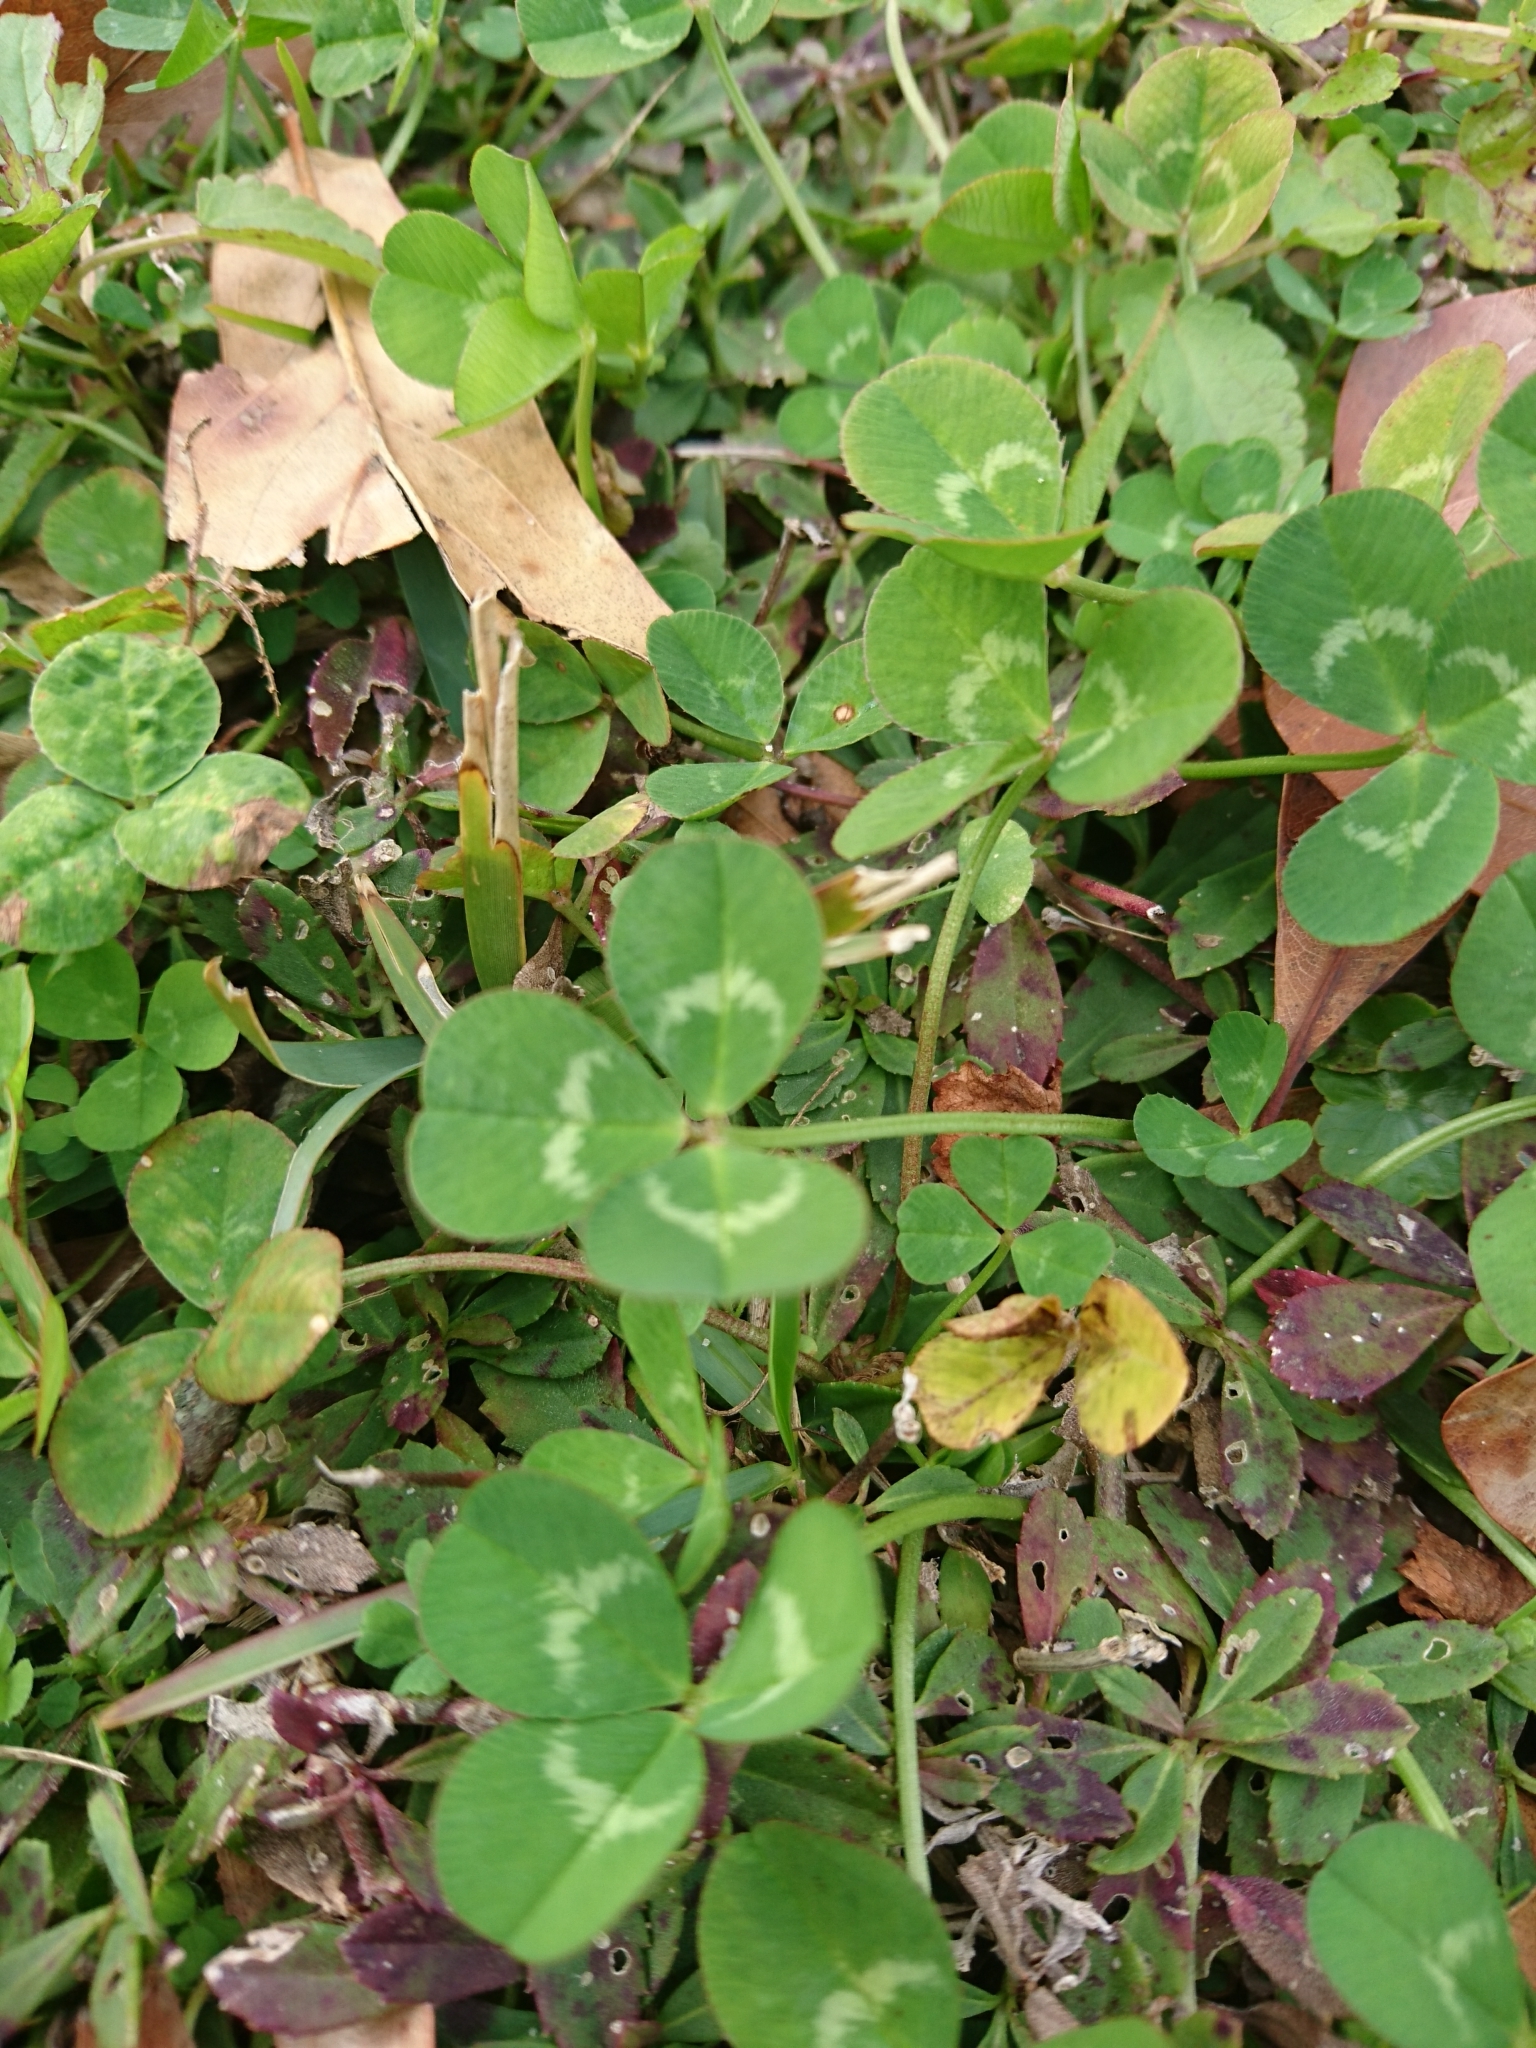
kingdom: Plantae
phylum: Tracheophyta
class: Magnoliopsida
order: Fabales
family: Fabaceae
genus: Trifolium
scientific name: Trifolium repens
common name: White clover
